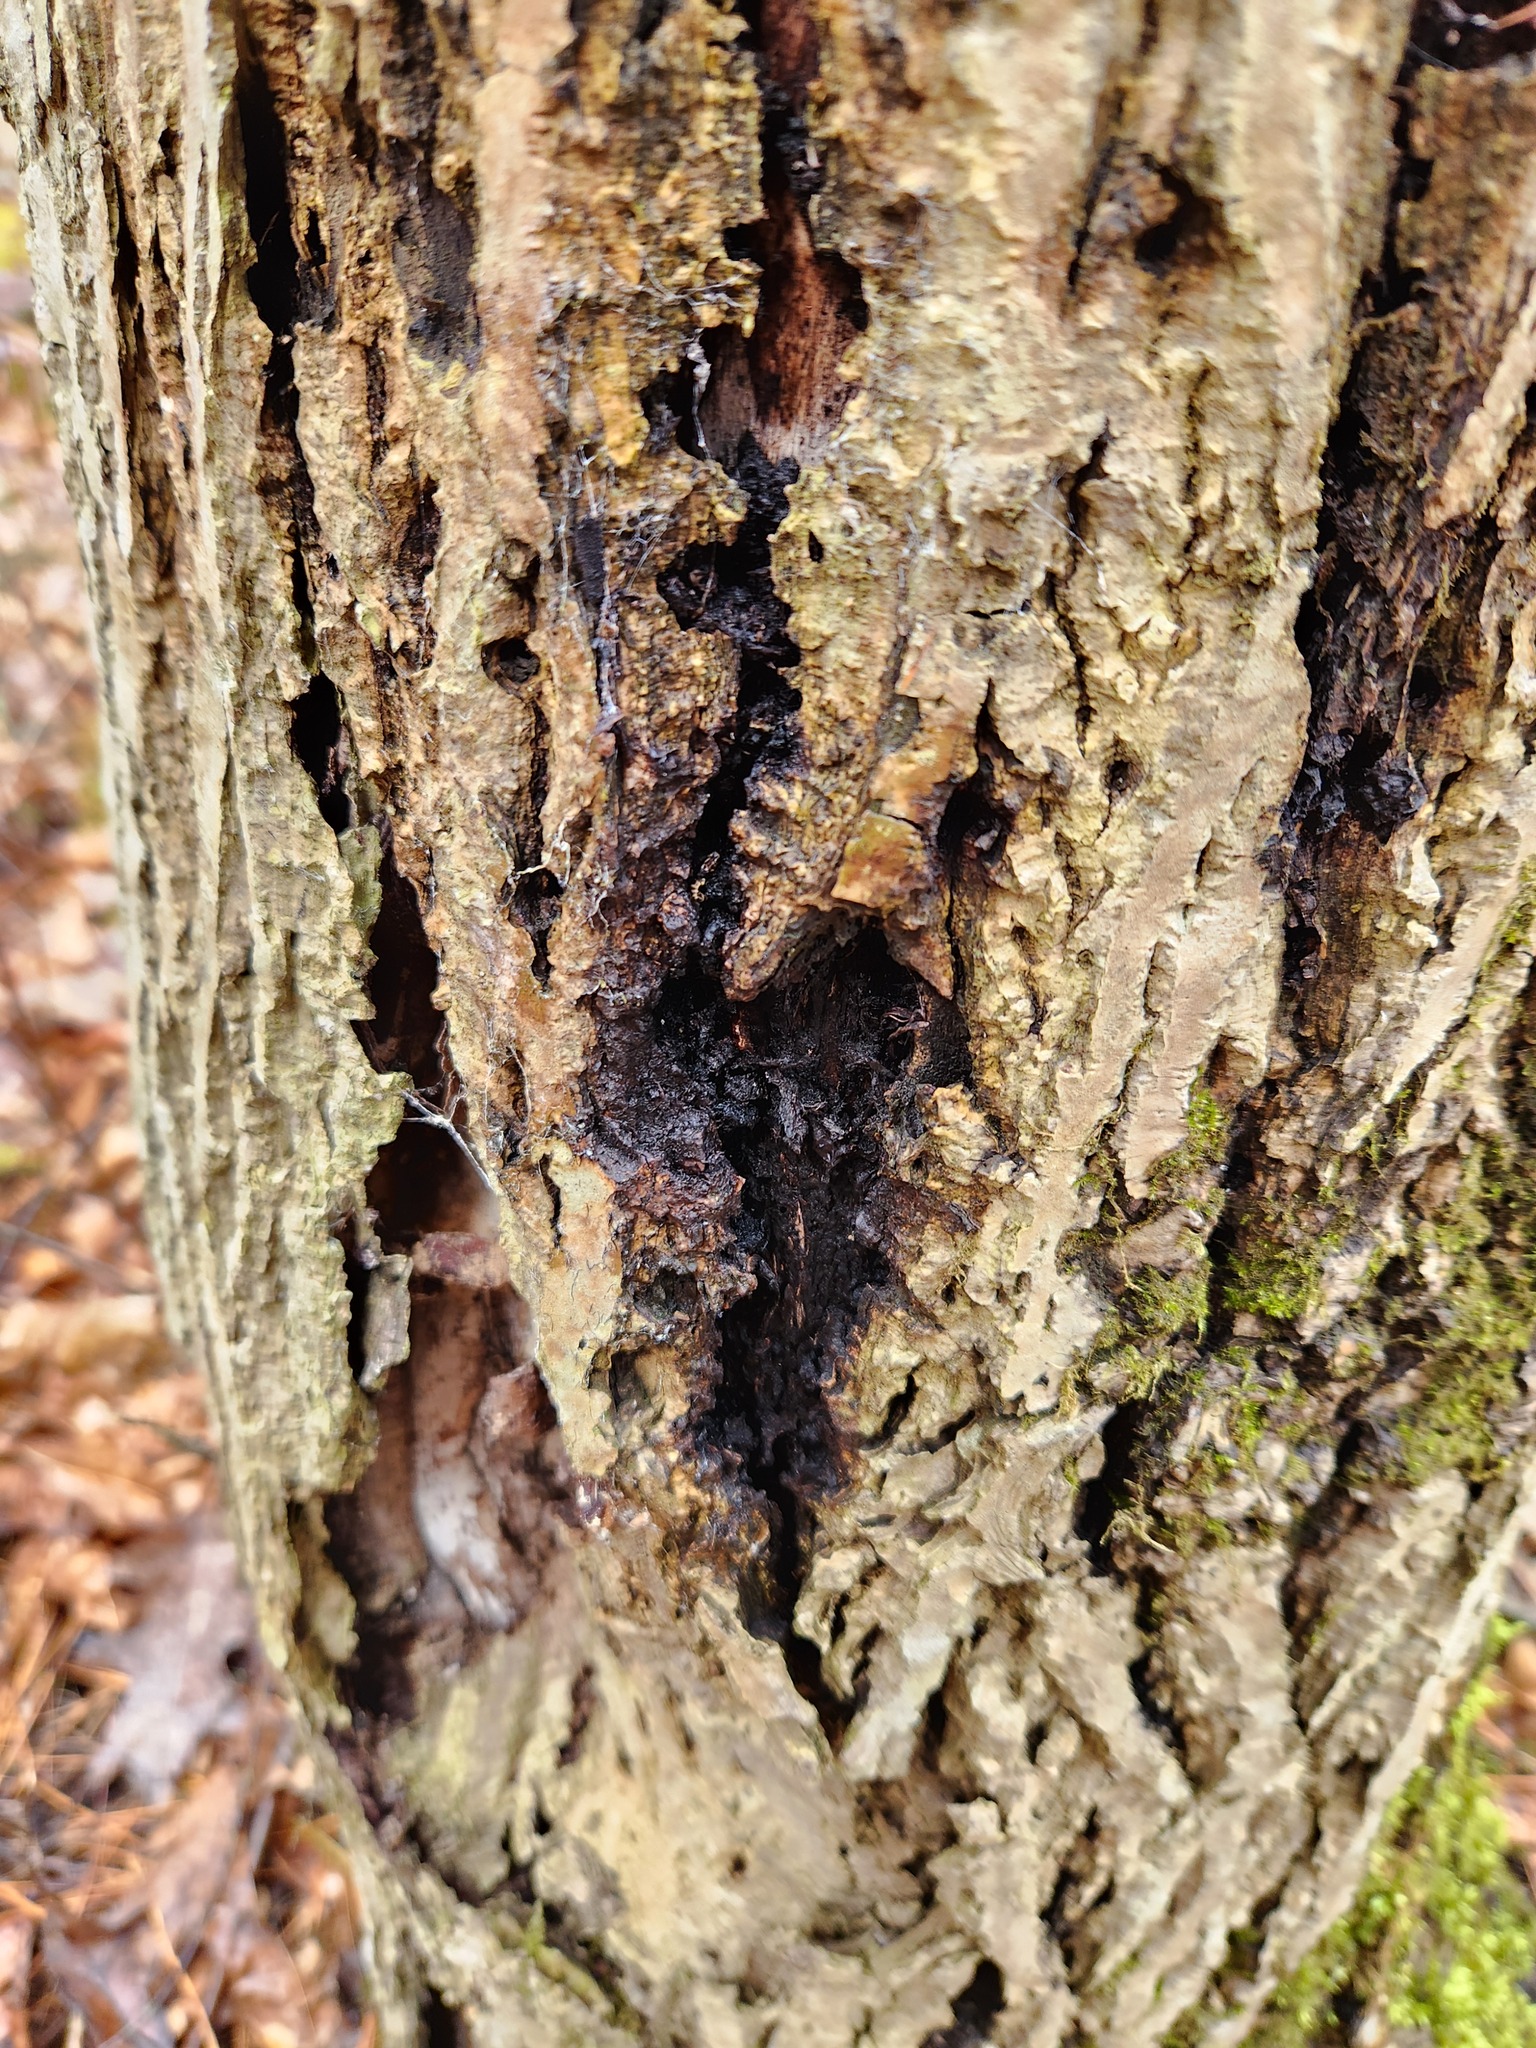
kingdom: Fungi
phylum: Ascomycota
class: Sordariomycetes
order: Diaporthales
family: Gnomoniaceae
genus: Ophiognomonia
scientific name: Ophiognomonia clavigignenti-juglandacearum
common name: Butternut canker fungus
